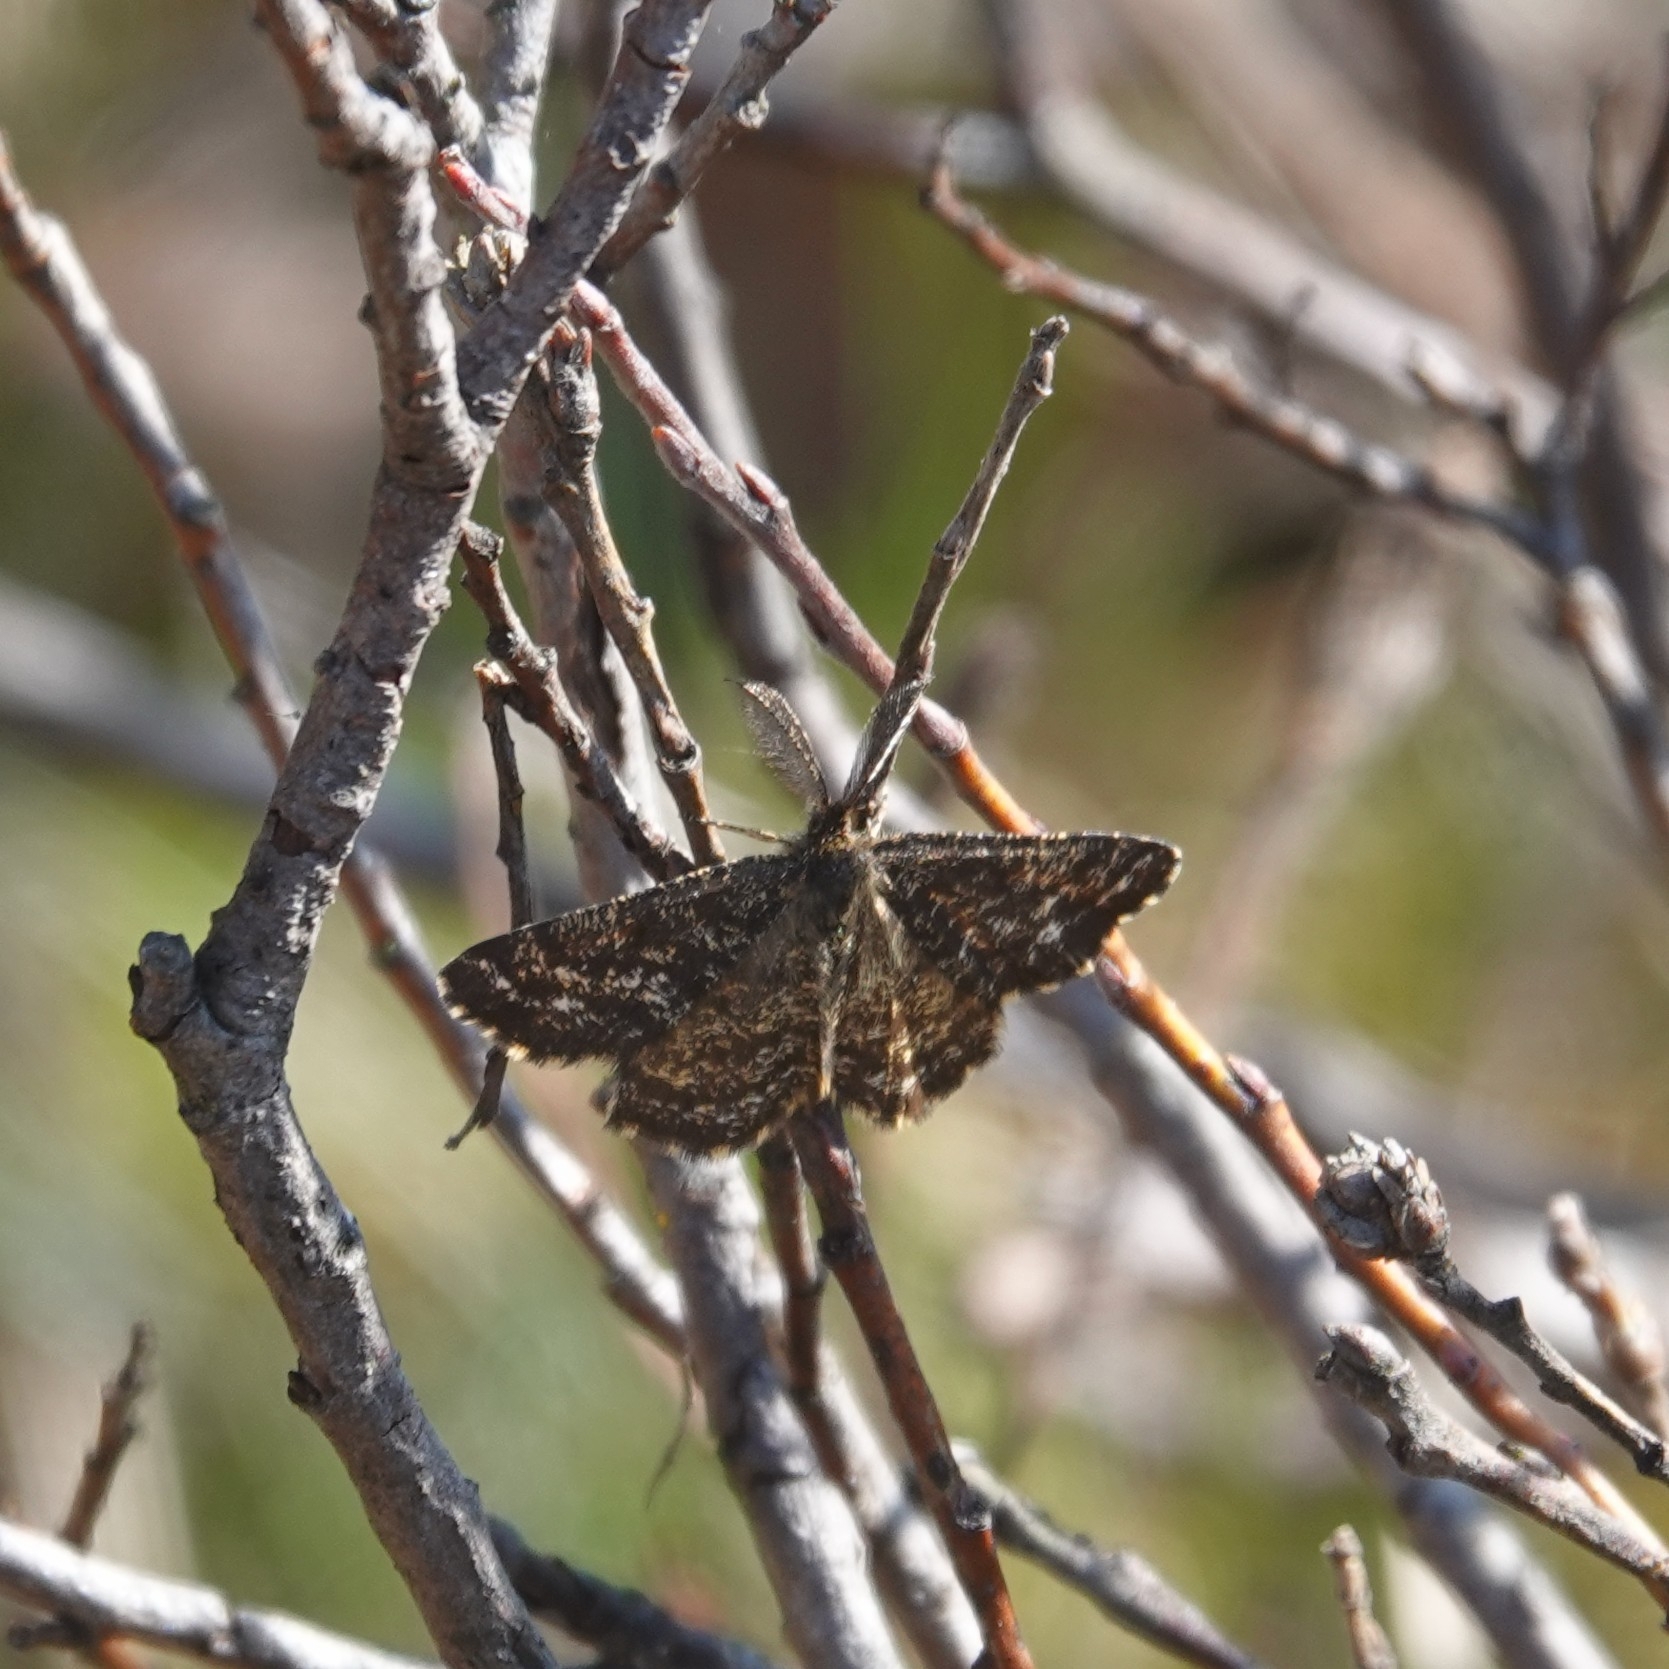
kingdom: Animalia
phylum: Arthropoda
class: Insecta
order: Lepidoptera
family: Geometridae
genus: Ematurga
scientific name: Ematurga atomaria
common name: Common heath
